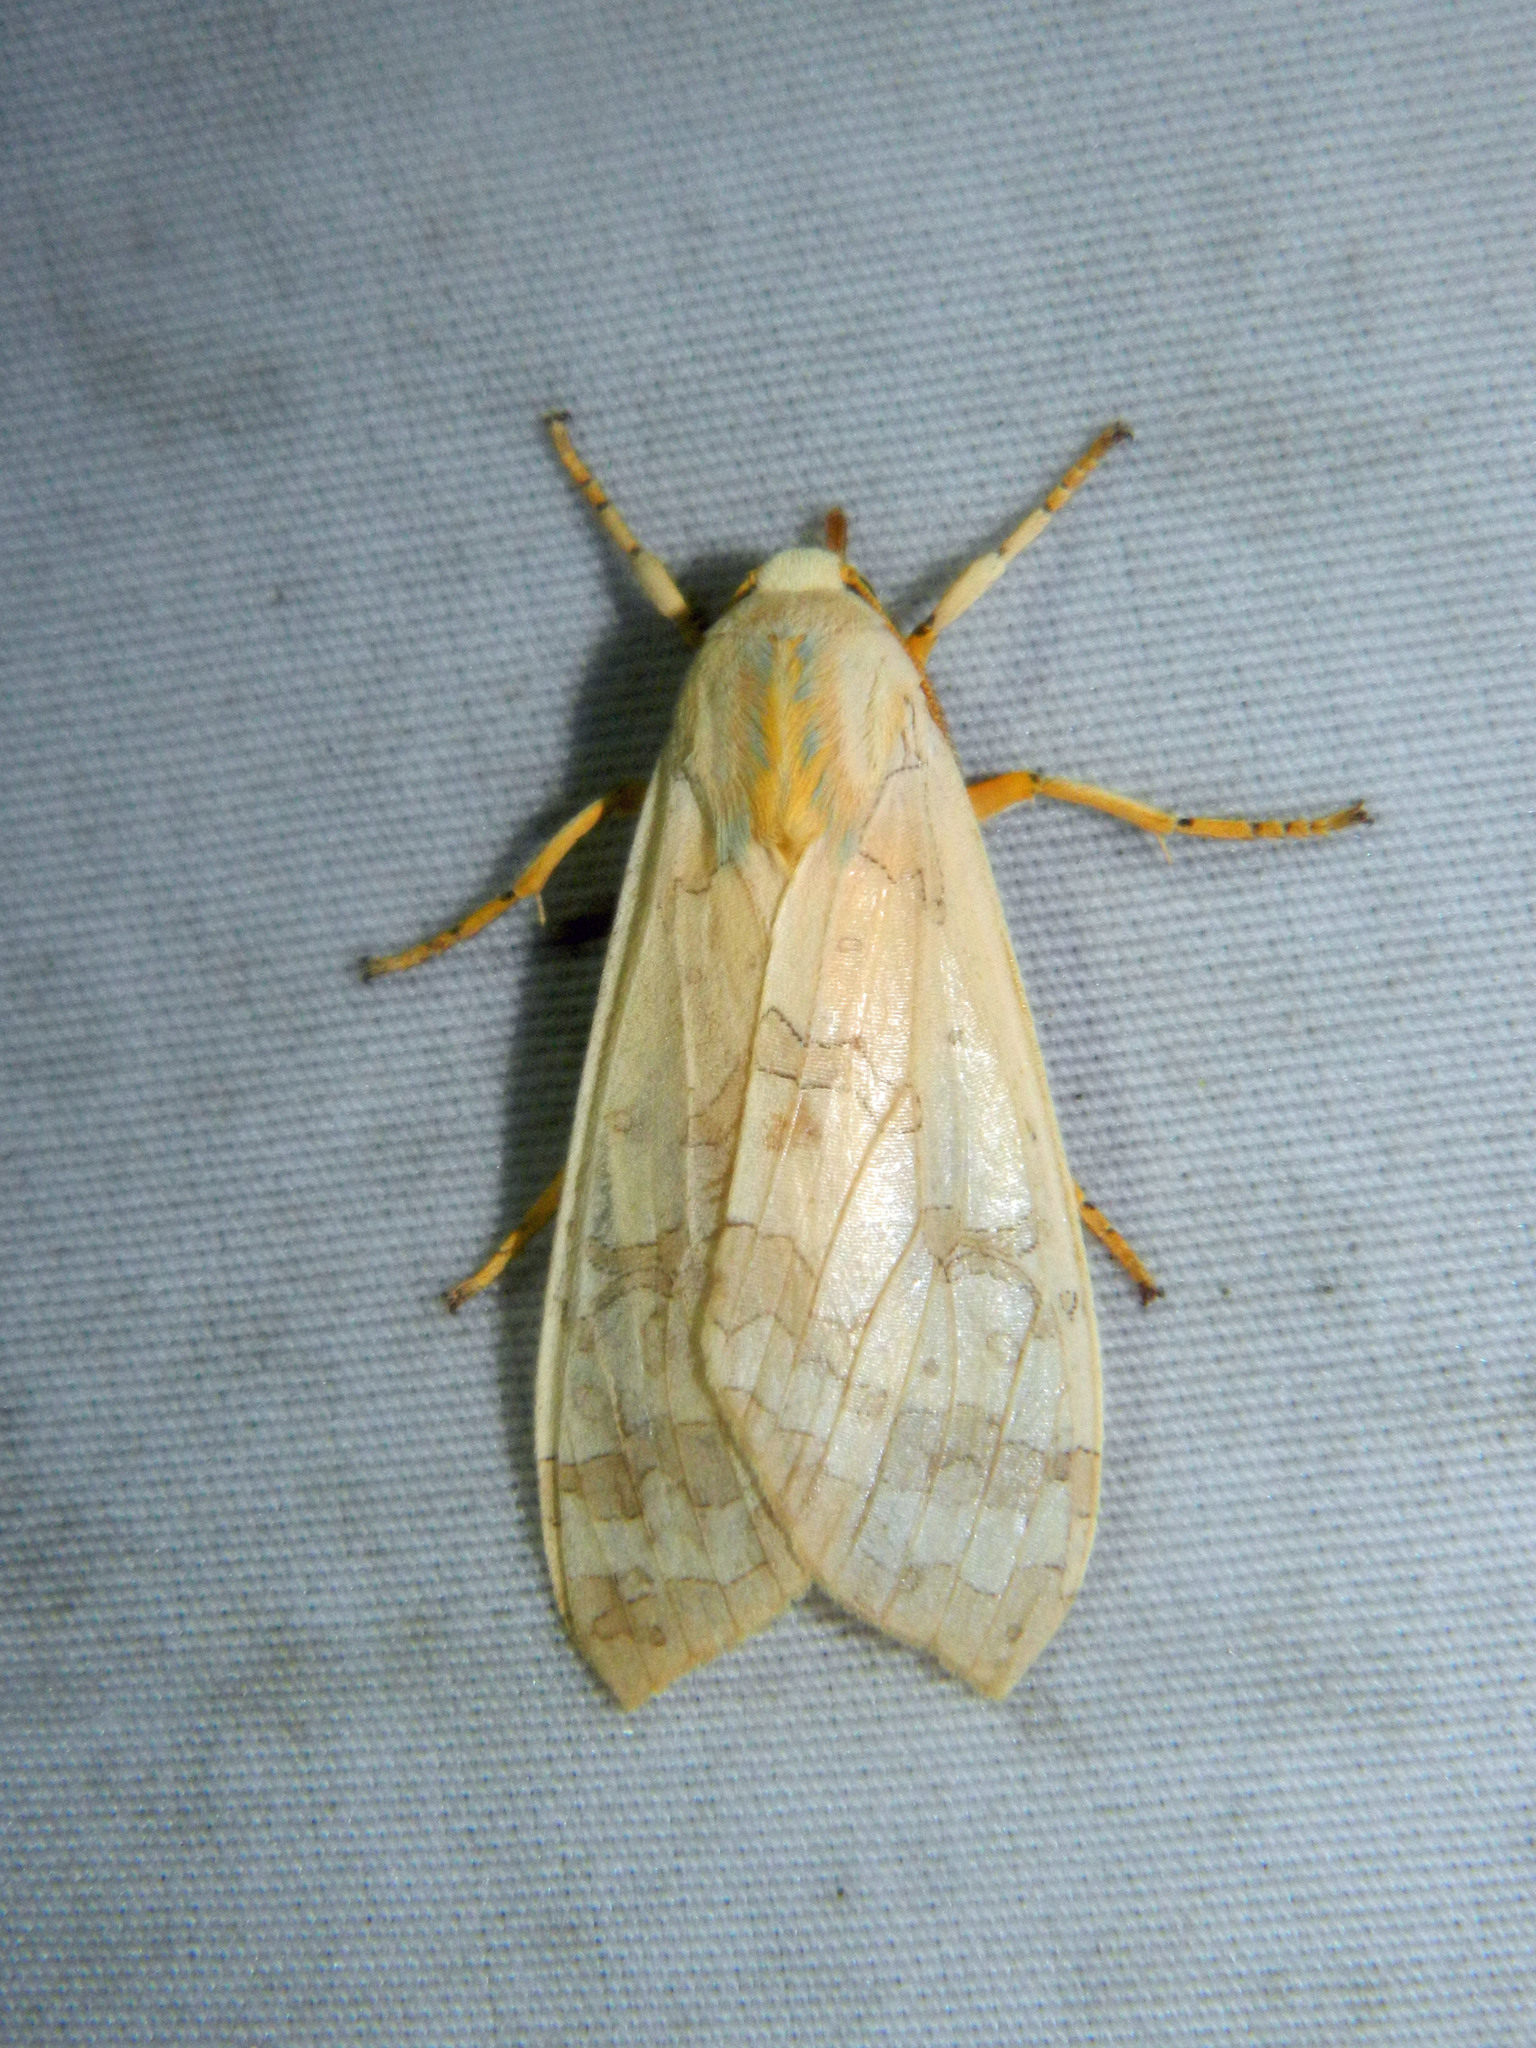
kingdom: Animalia
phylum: Arthropoda
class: Insecta
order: Lepidoptera
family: Erebidae
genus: Halysidota
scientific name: Halysidota tessellaris
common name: Banded tussock moth
